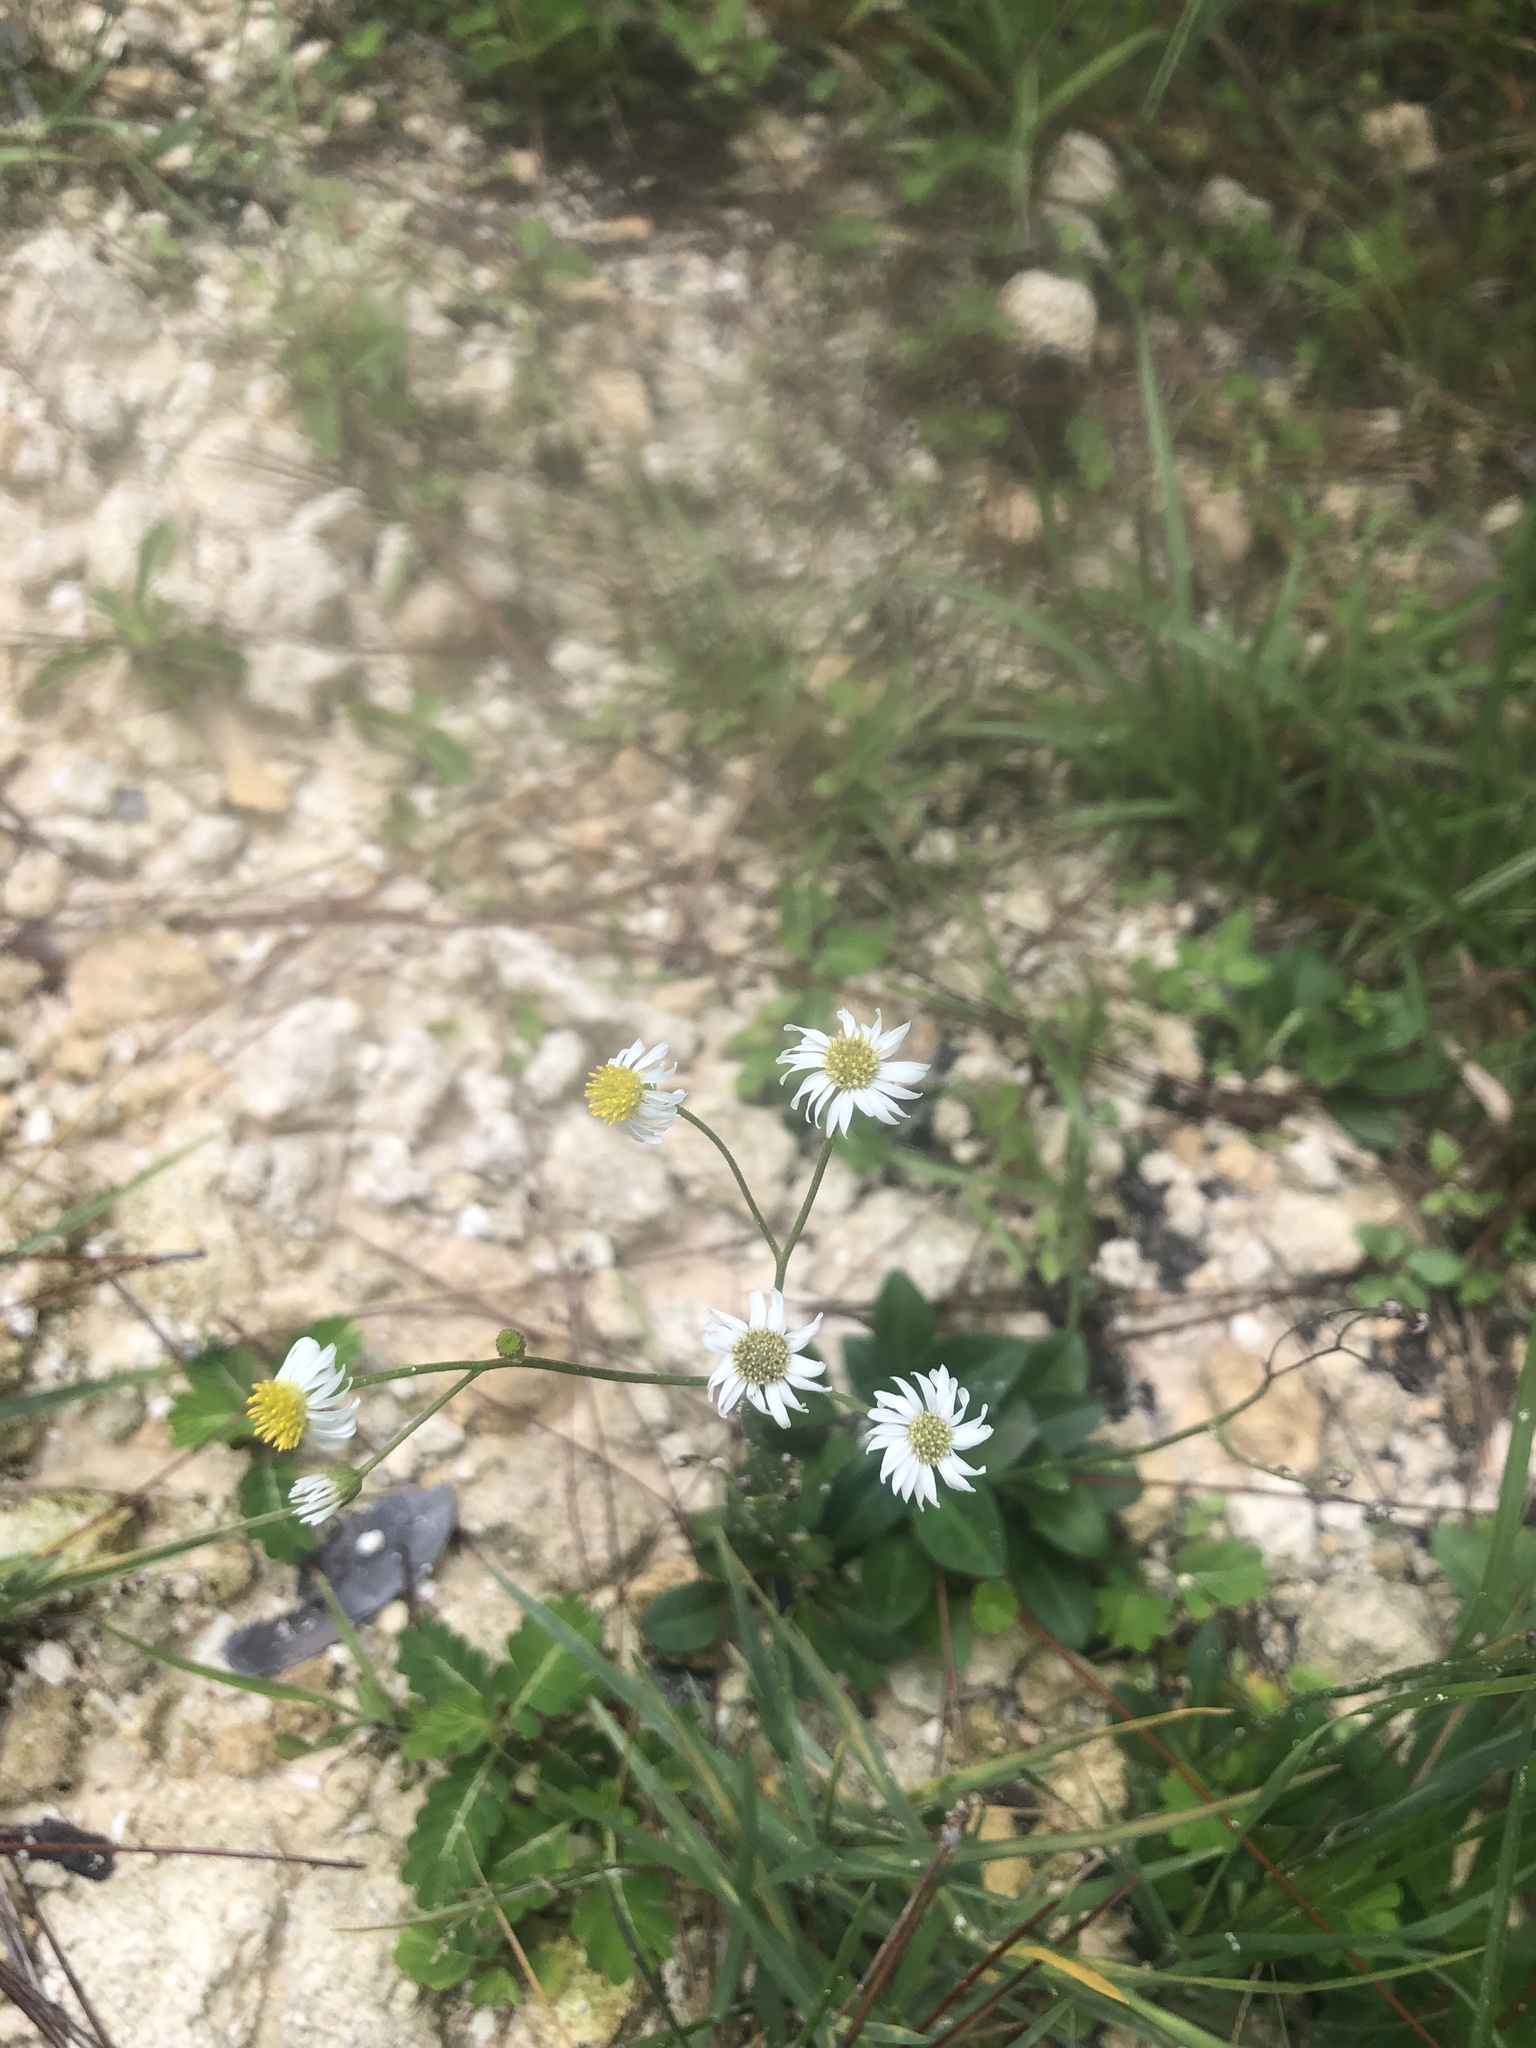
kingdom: Plantae
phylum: Tracheophyta
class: Magnoliopsida
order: Asterales
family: Asteraceae
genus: Erigeron
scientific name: Erigeron vernus
